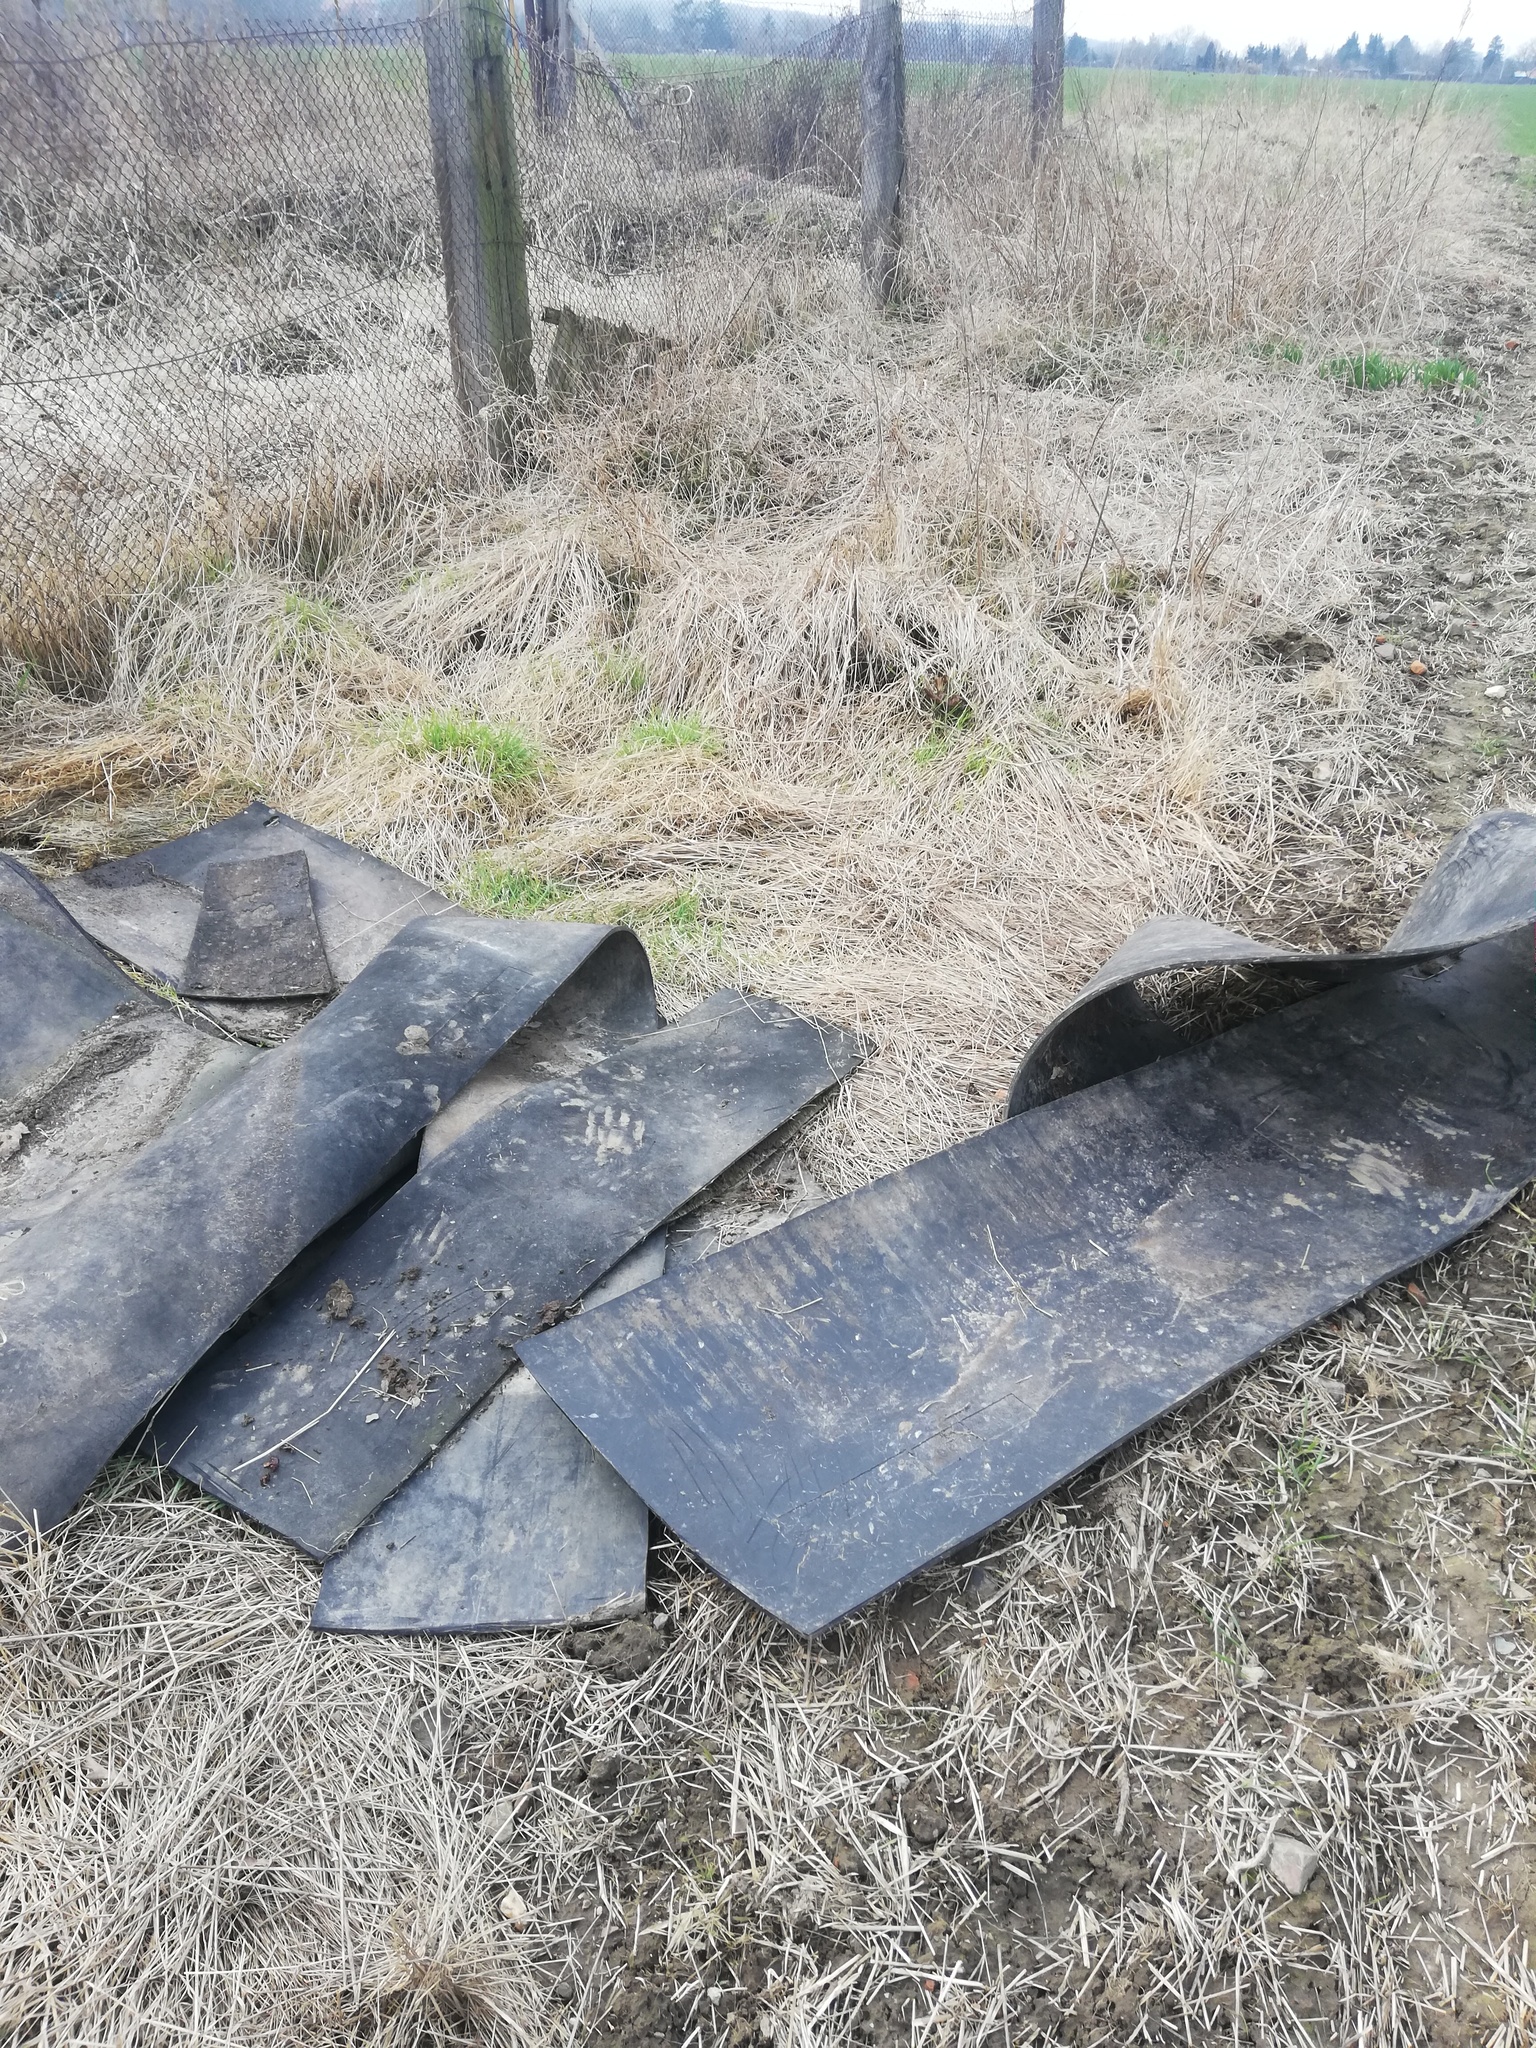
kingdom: Animalia
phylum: Arthropoda
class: Insecta
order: Coleoptera
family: Staphylinidae
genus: Silpha
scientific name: Silpha atrata
